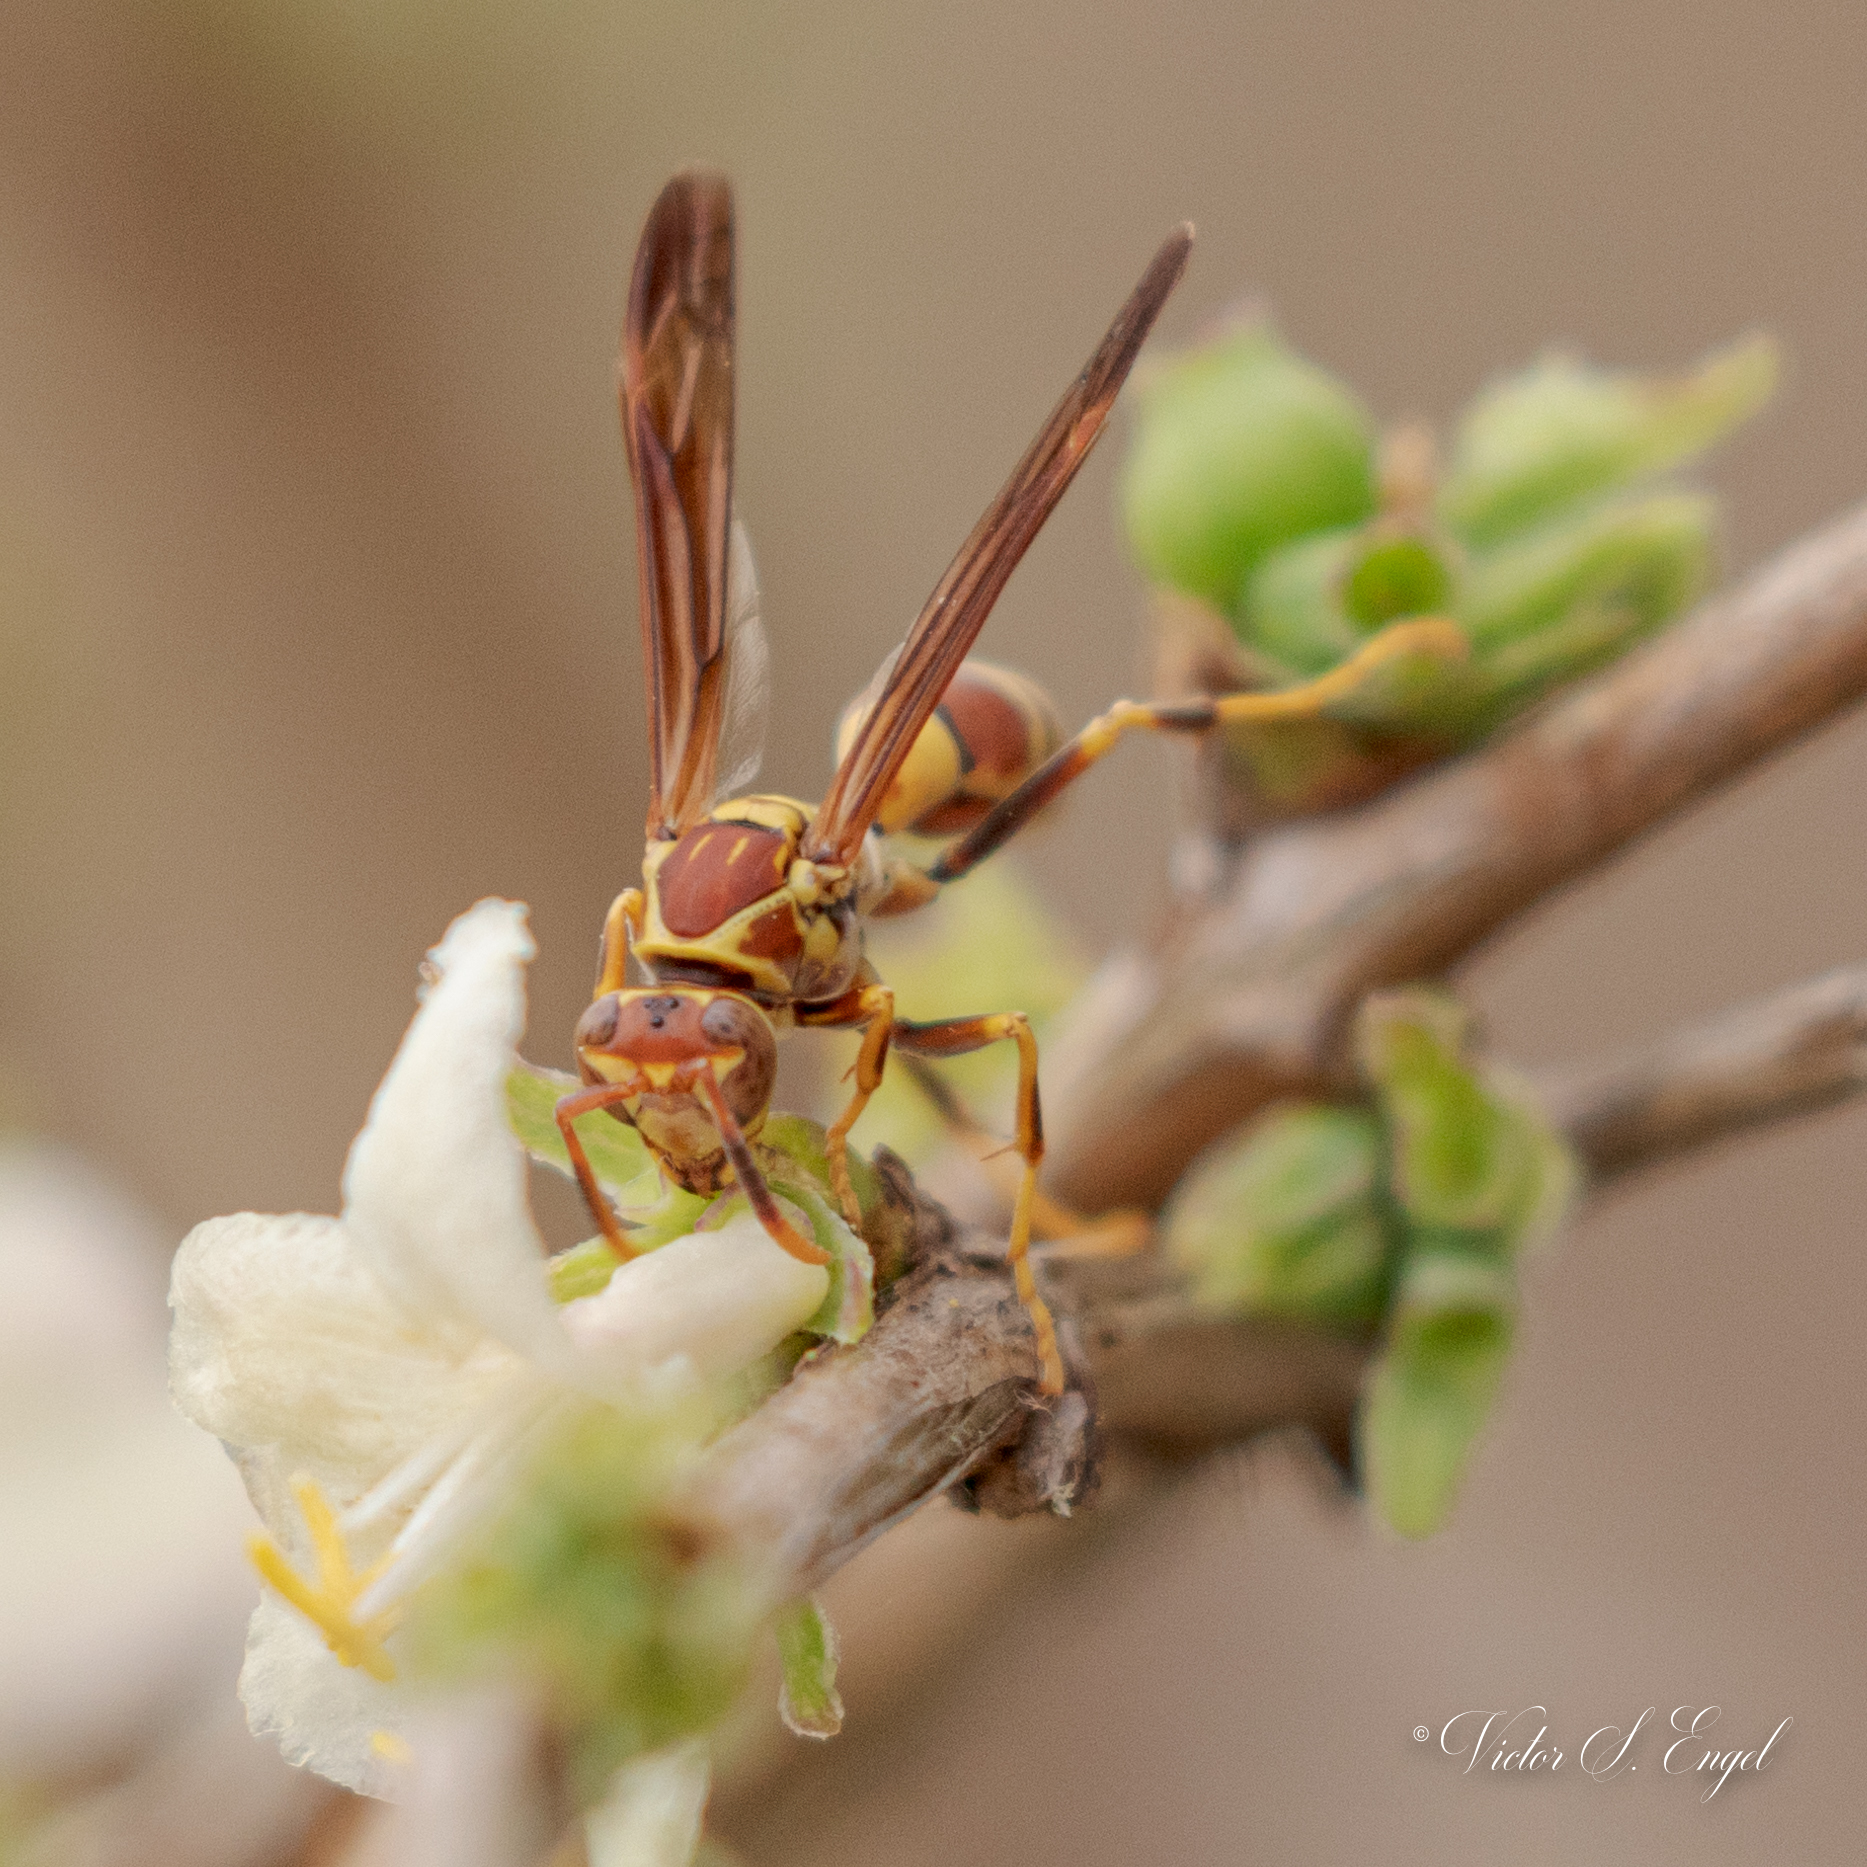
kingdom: Animalia
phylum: Arthropoda
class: Insecta
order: Hymenoptera
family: Eumenidae
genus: Polistes
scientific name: Polistes exclamans
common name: Paper wasp
